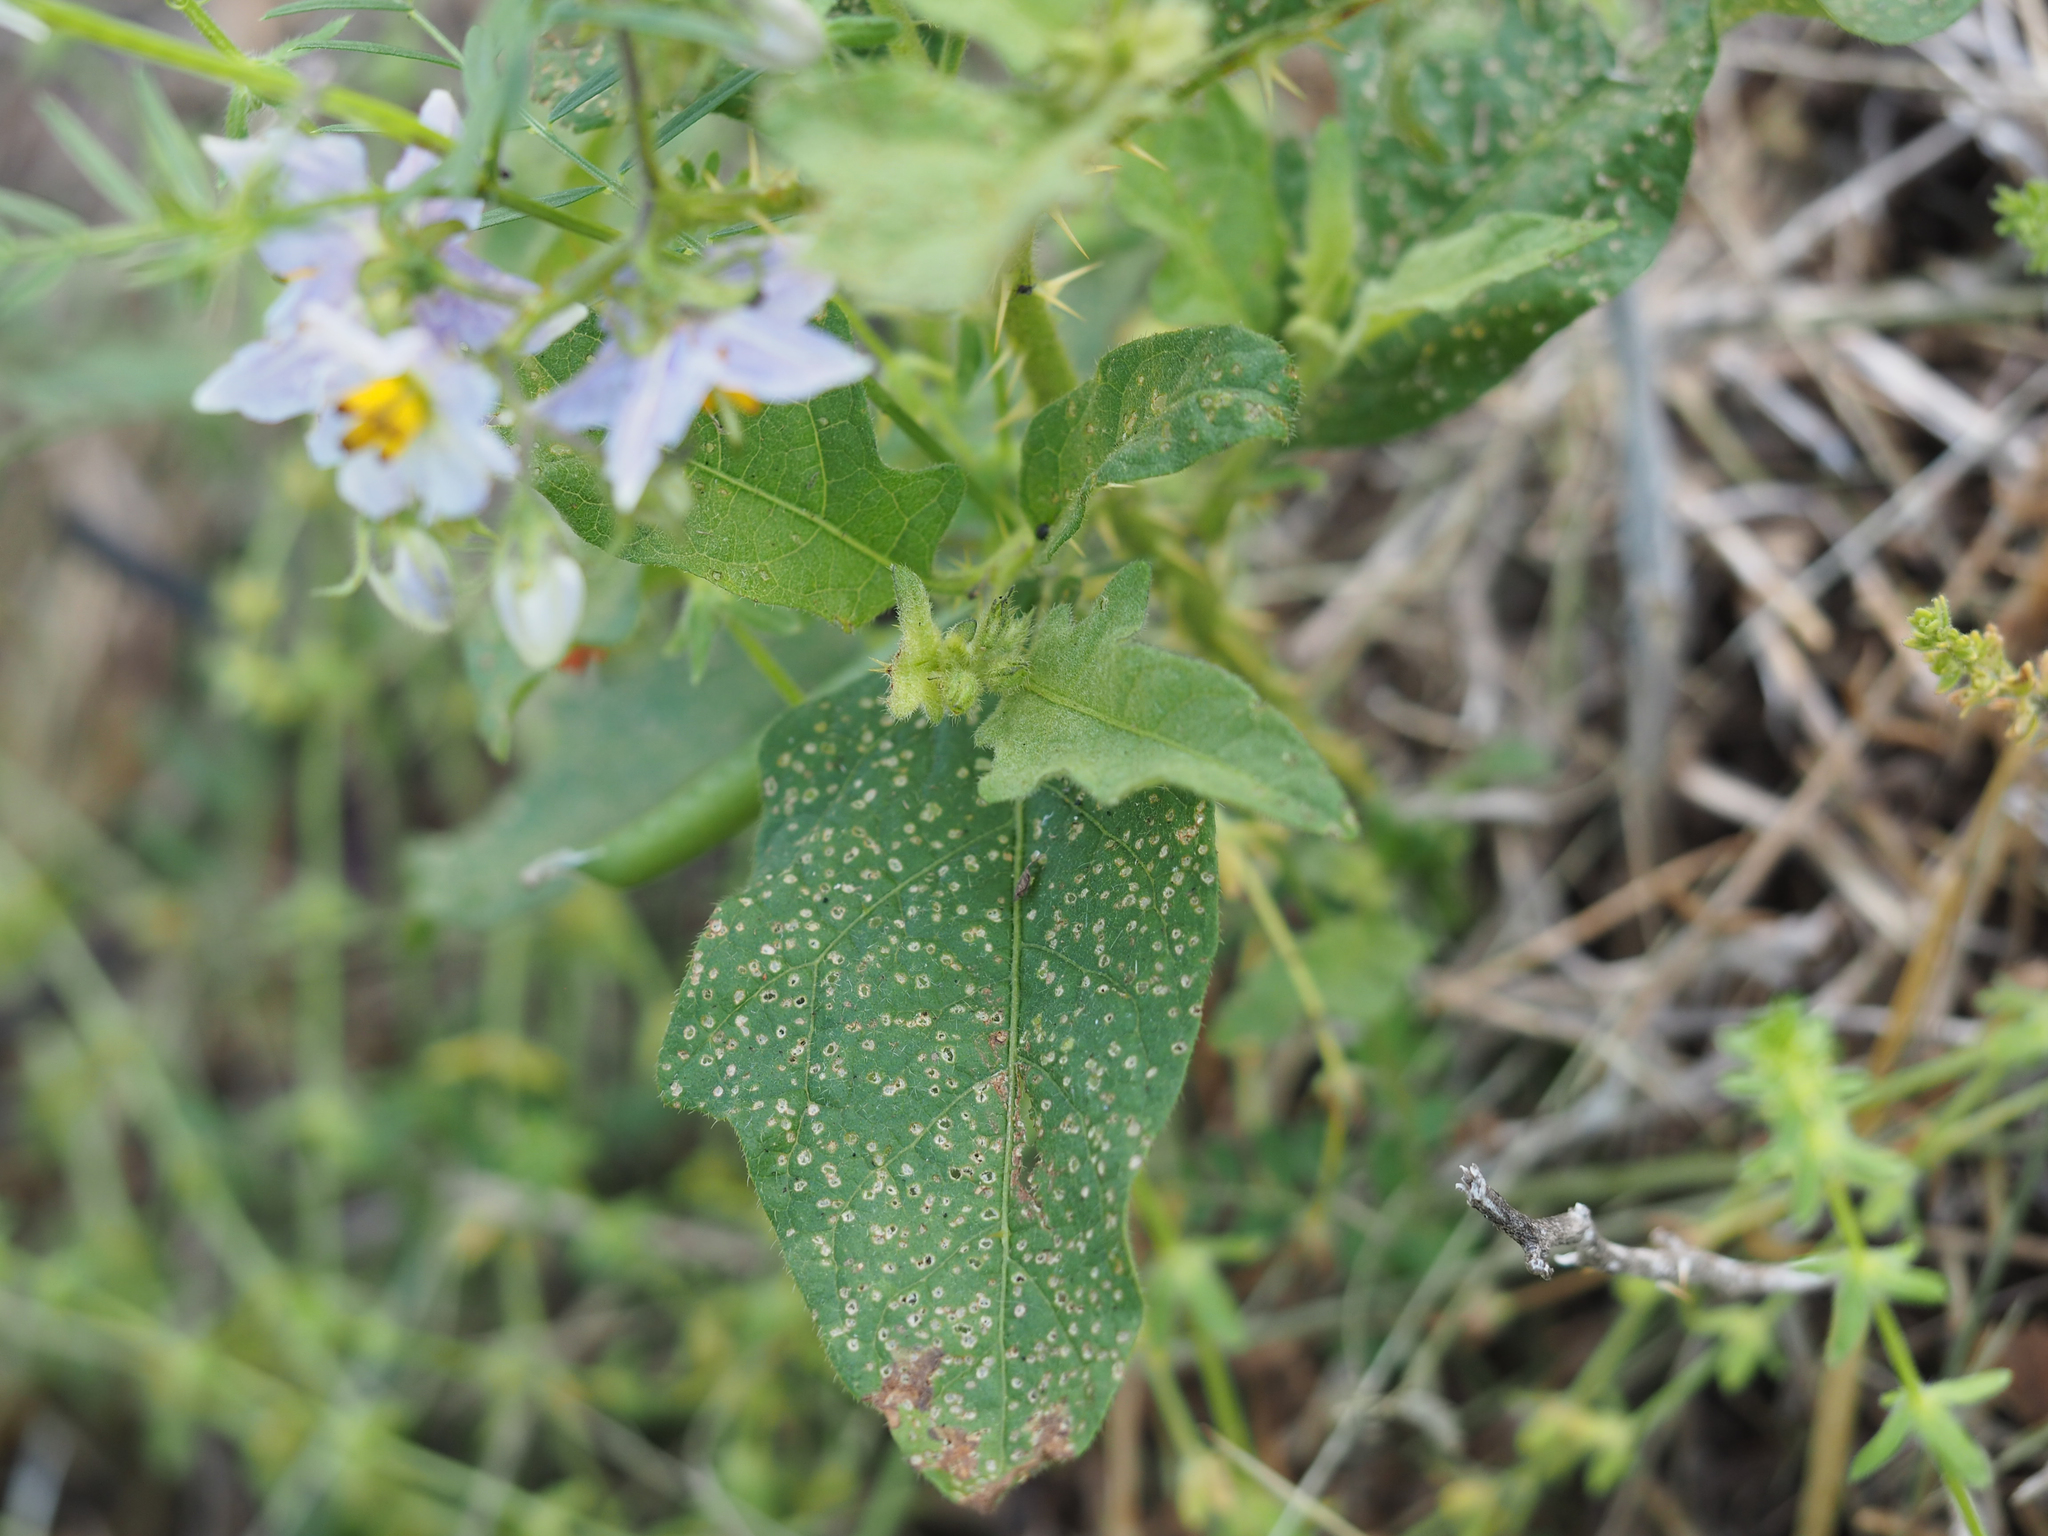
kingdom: Plantae
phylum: Tracheophyta
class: Magnoliopsida
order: Solanales
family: Solanaceae
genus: Solanum
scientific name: Solanum carolinense
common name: Horse-nettle
